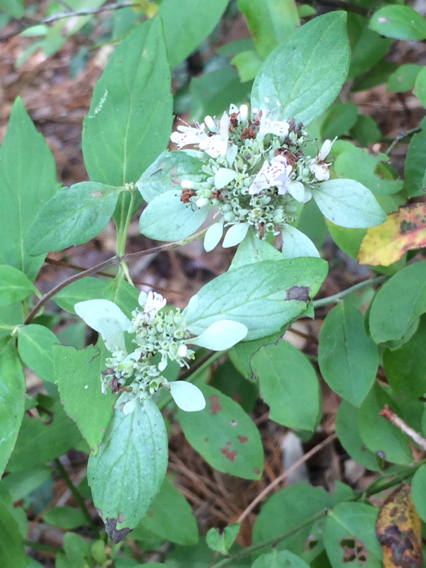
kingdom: Plantae
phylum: Tracheophyta
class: Magnoliopsida
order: Lamiales
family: Lamiaceae
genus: Pycnanthemum
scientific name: Pycnanthemum albescens
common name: White-leaf mountain-mint
